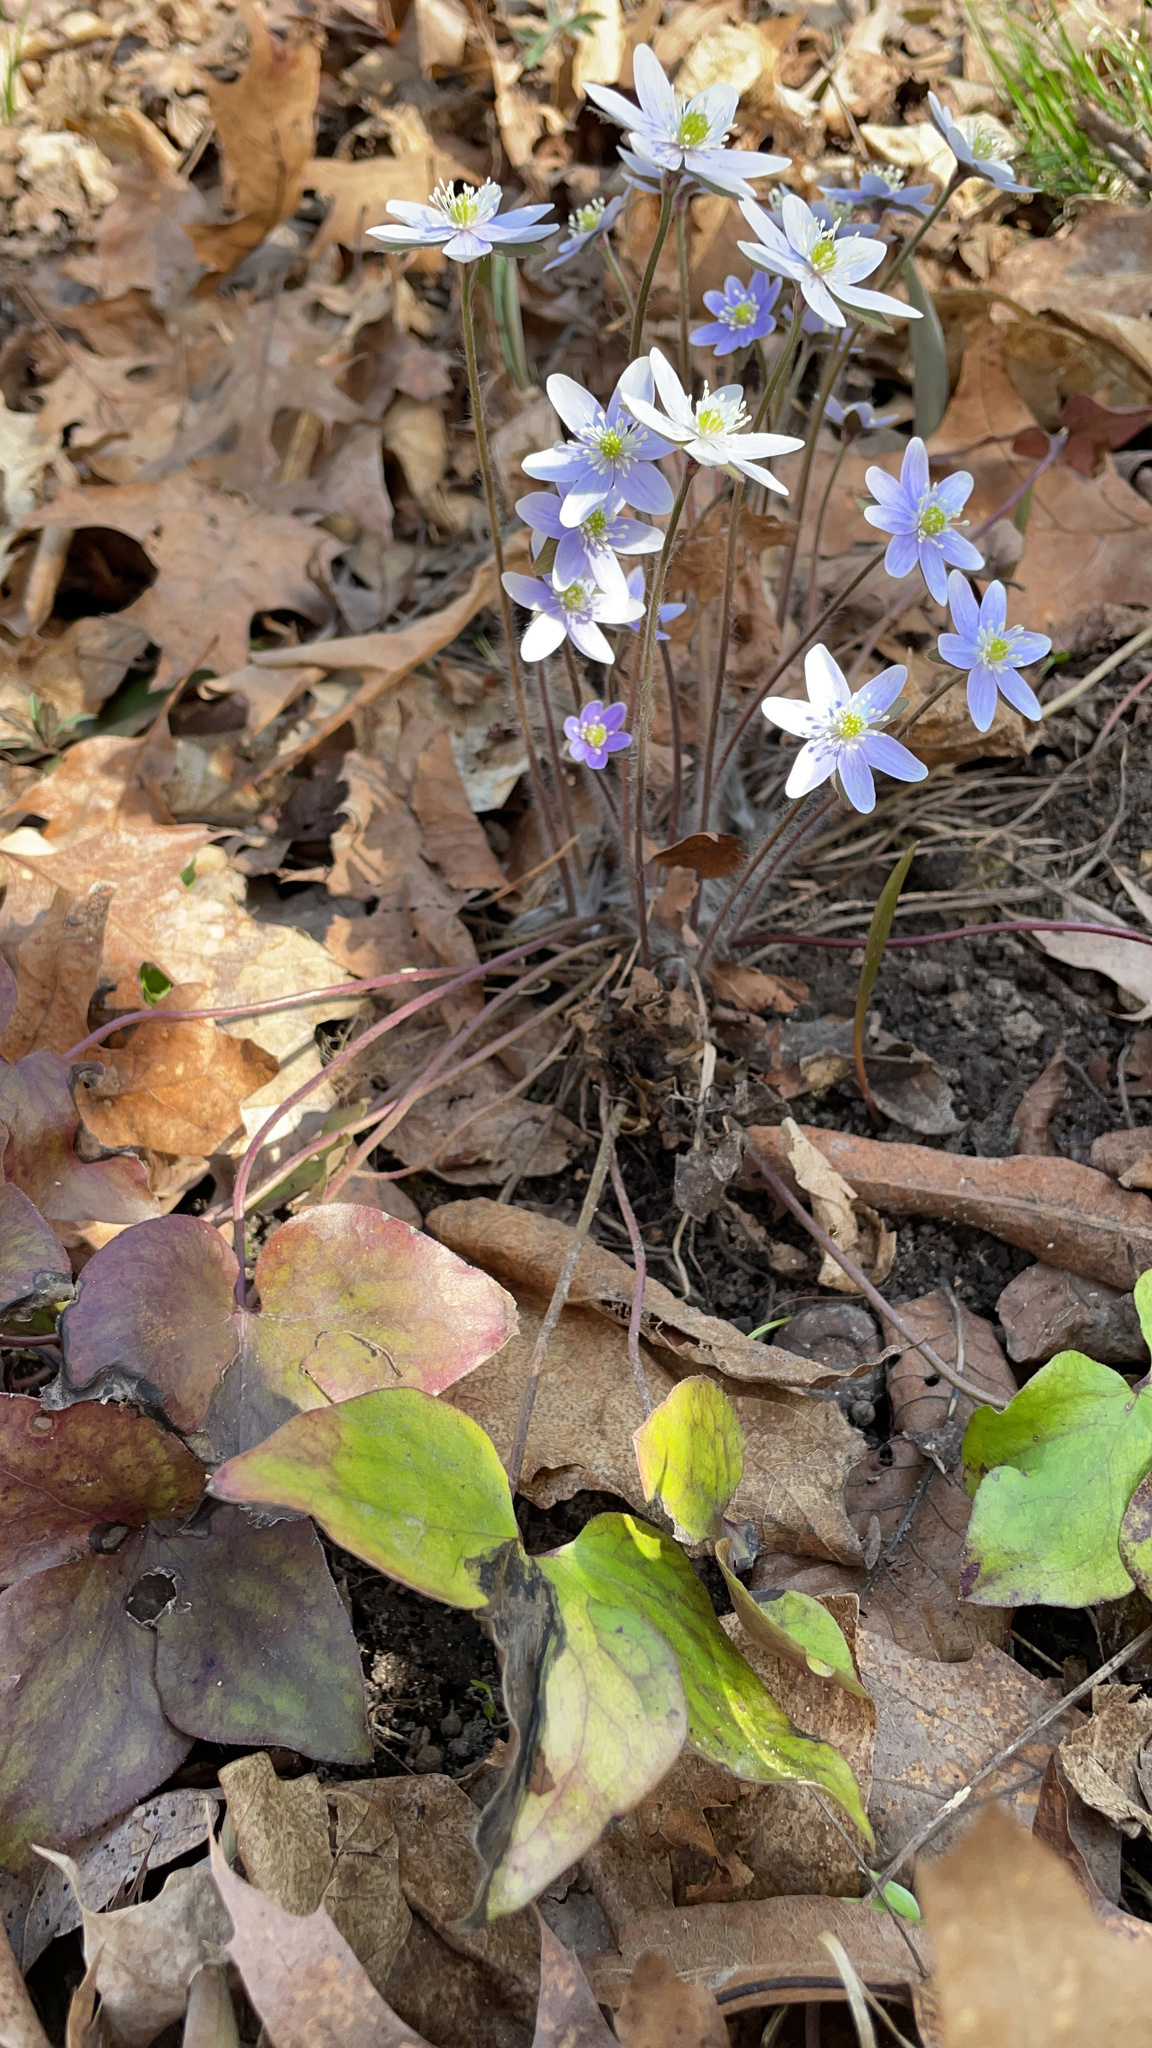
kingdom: Plantae
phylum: Tracheophyta
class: Magnoliopsida
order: Ranunculales
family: Ranunculaceae
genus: Hepatica
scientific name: Hepatica acutiloba
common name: Sharp-lobed hepatica
